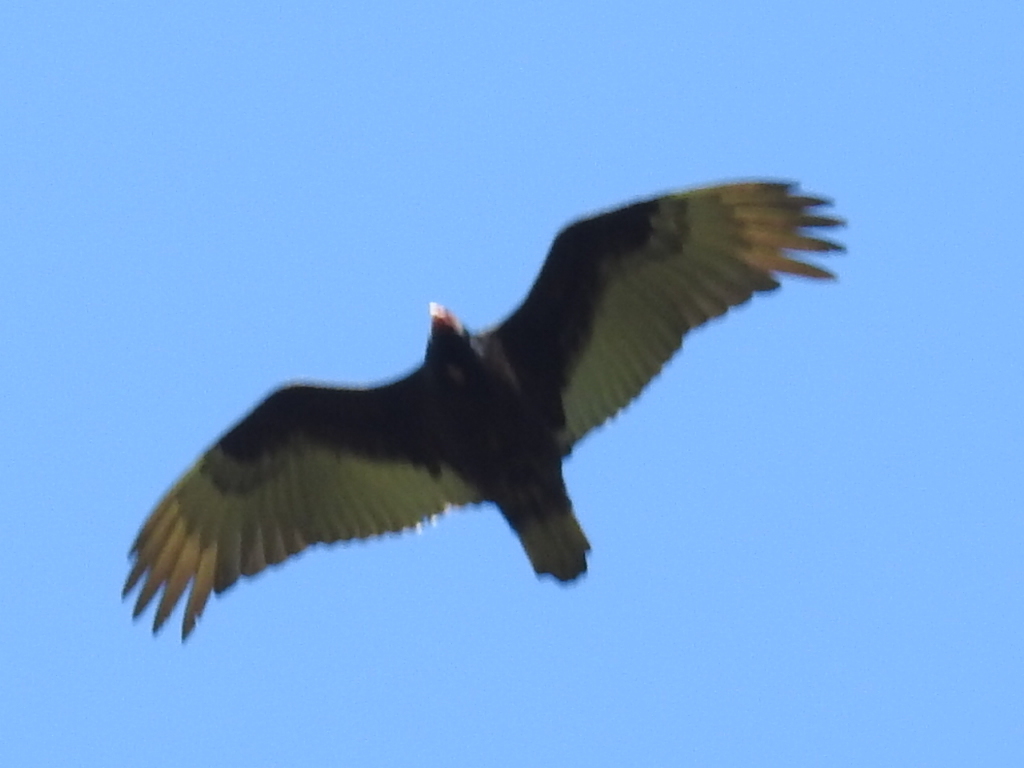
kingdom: Animalia
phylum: Chordata
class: Aves
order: Accipitriformes
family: Cathartidae
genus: Cathartes
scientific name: Cathartes aura
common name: Turkey vulture
